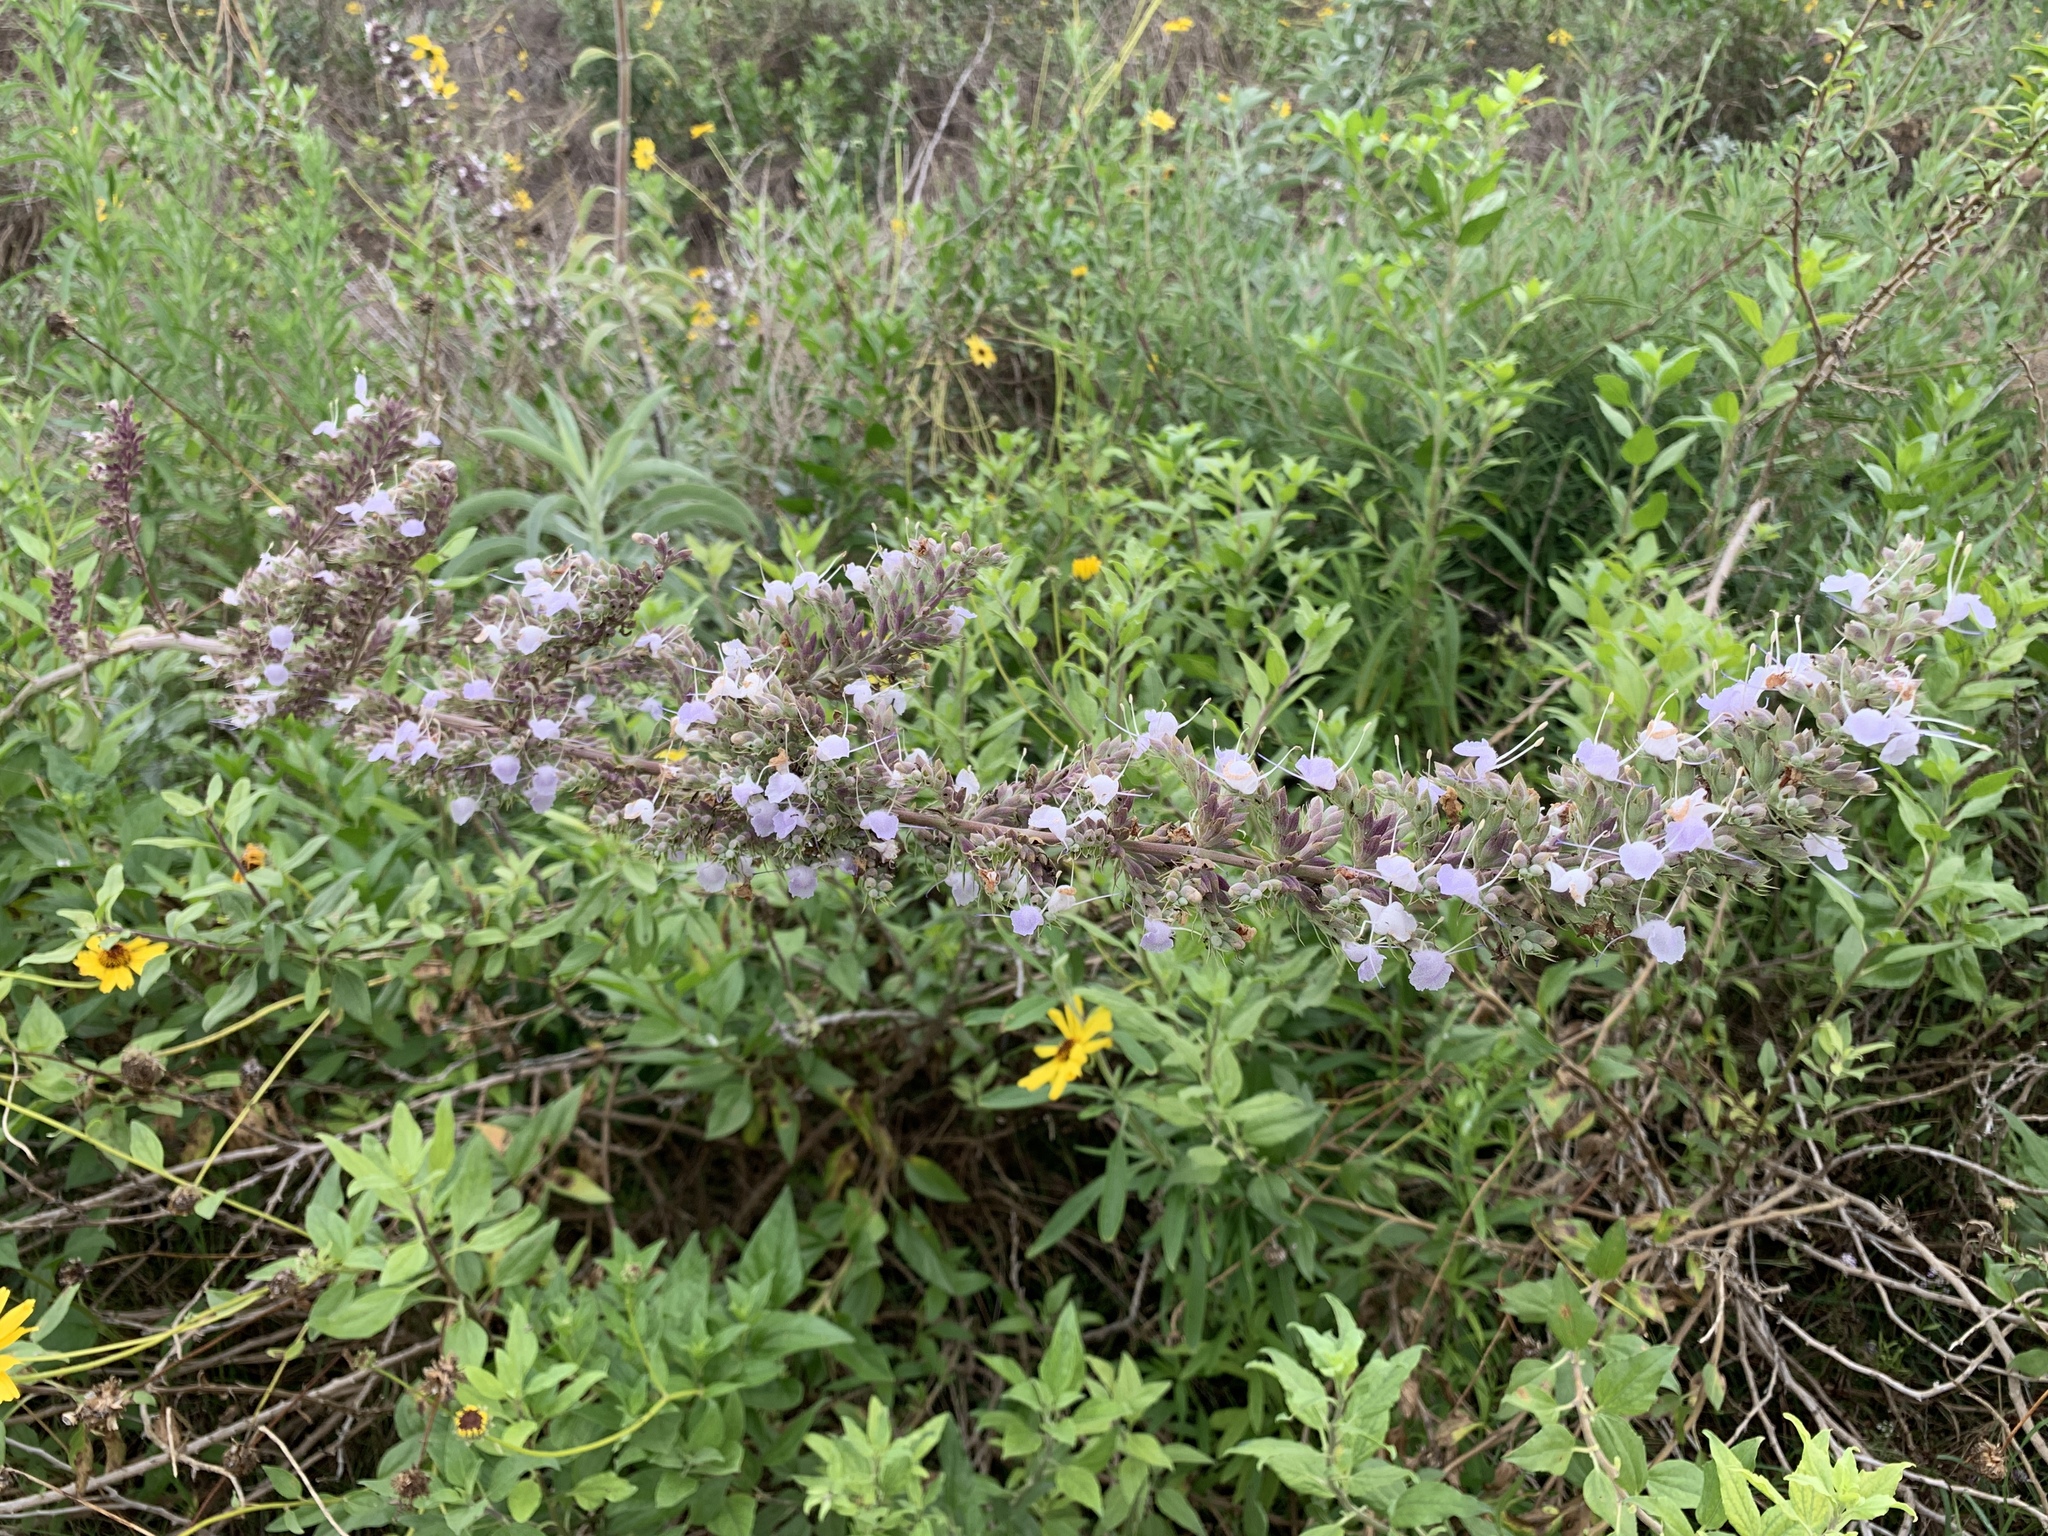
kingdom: Plantae
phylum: Tracheophyta
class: Magnoliopsida
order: Lamiales
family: Lamiaceae
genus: Salvia
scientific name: Salvia apiana
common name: White sage
